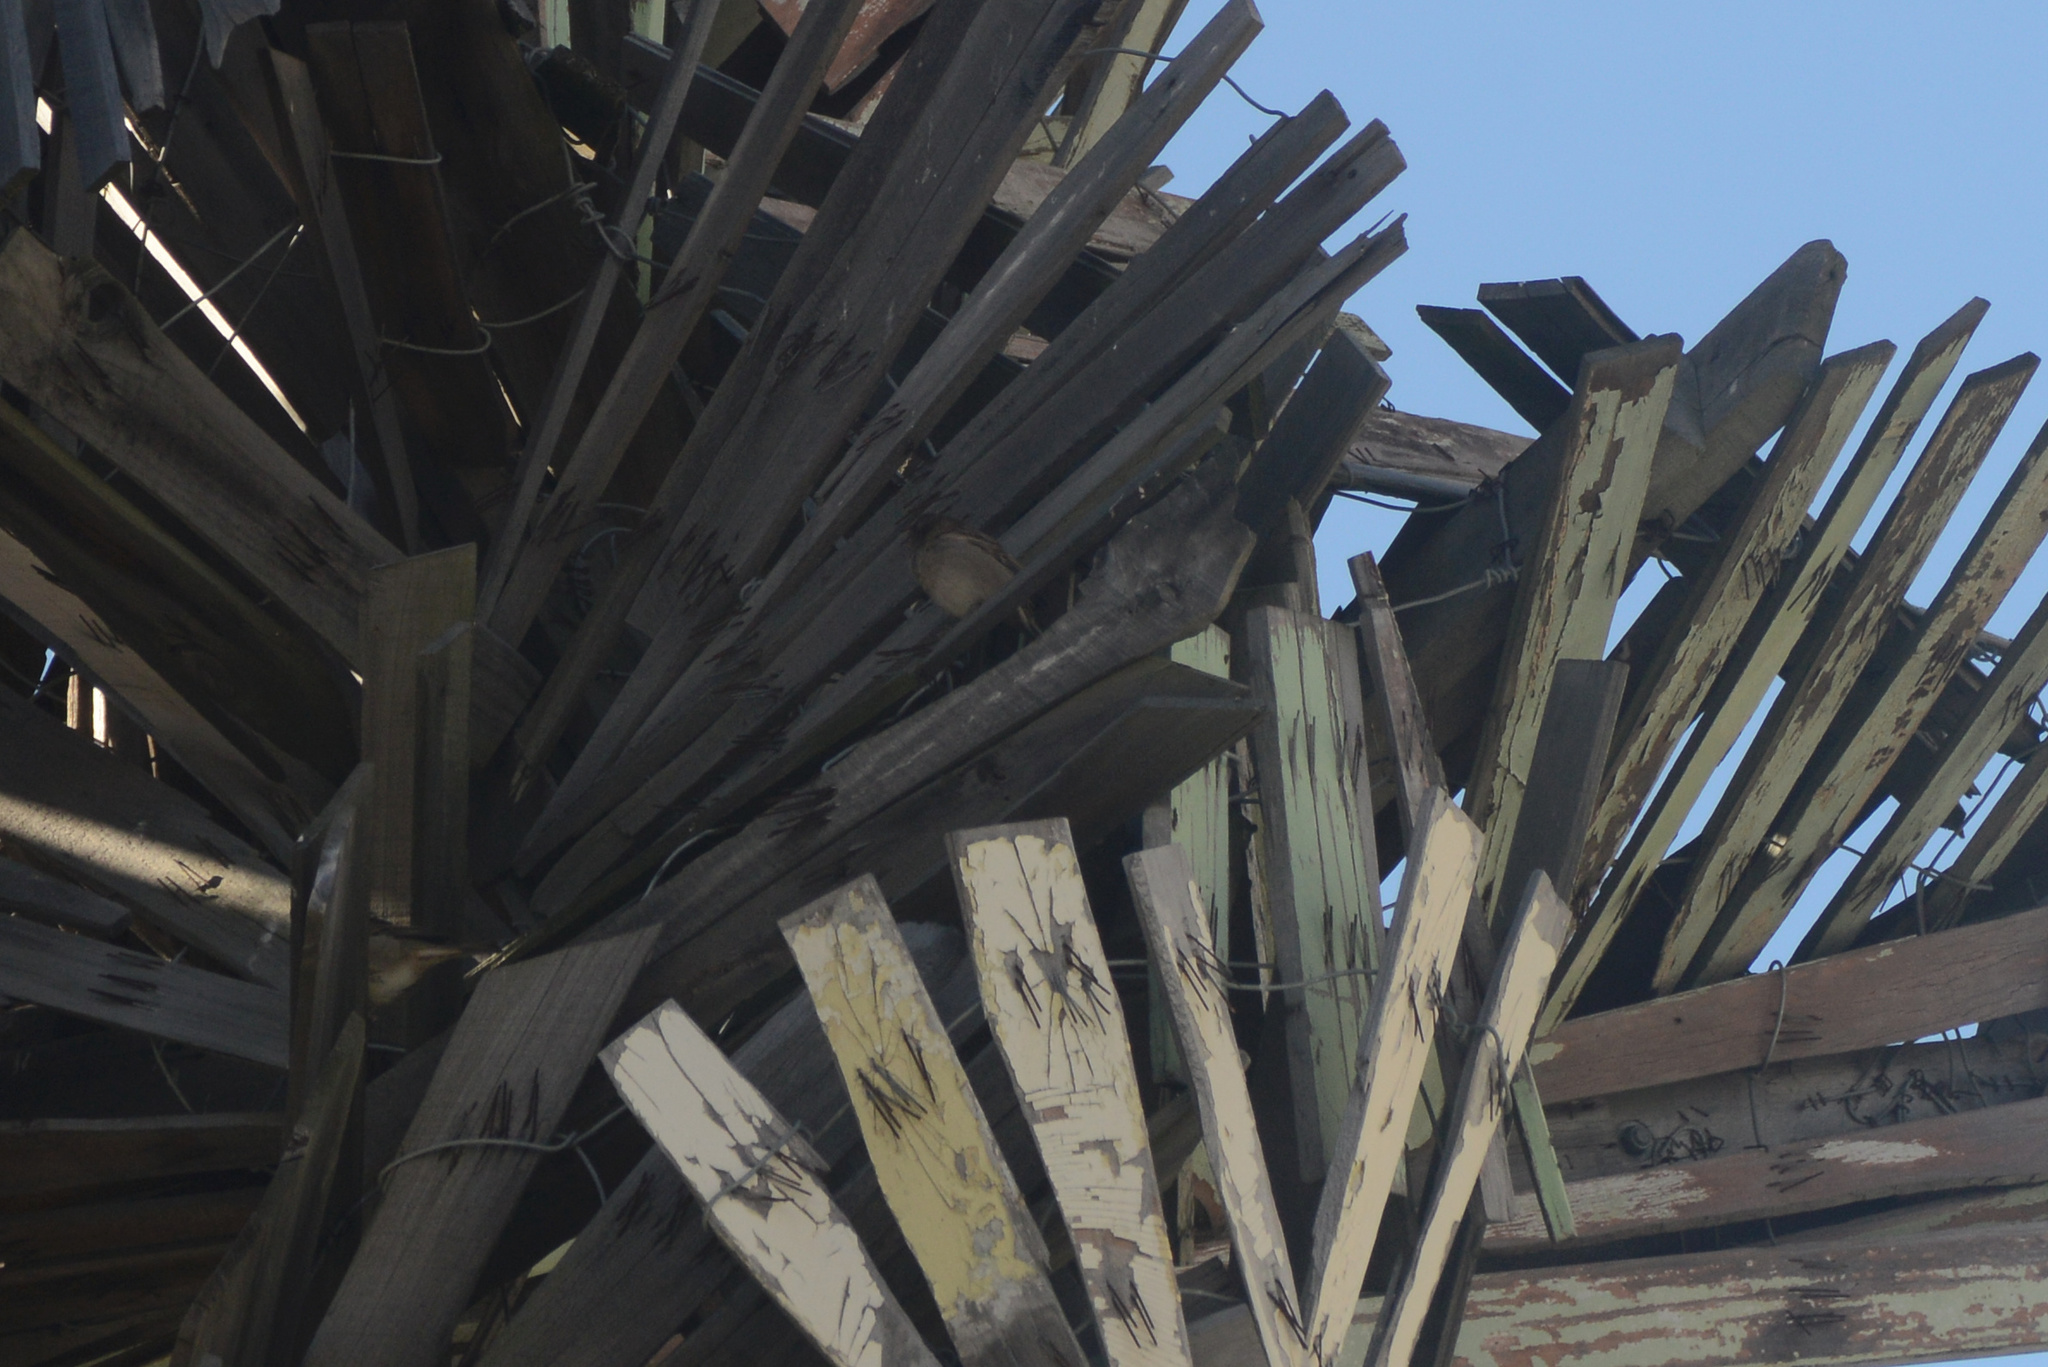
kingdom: Animalia
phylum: Chordata
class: Aves
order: Passeriformes
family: Passeridae
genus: Passer
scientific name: Passer domesticus
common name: House sparrow
